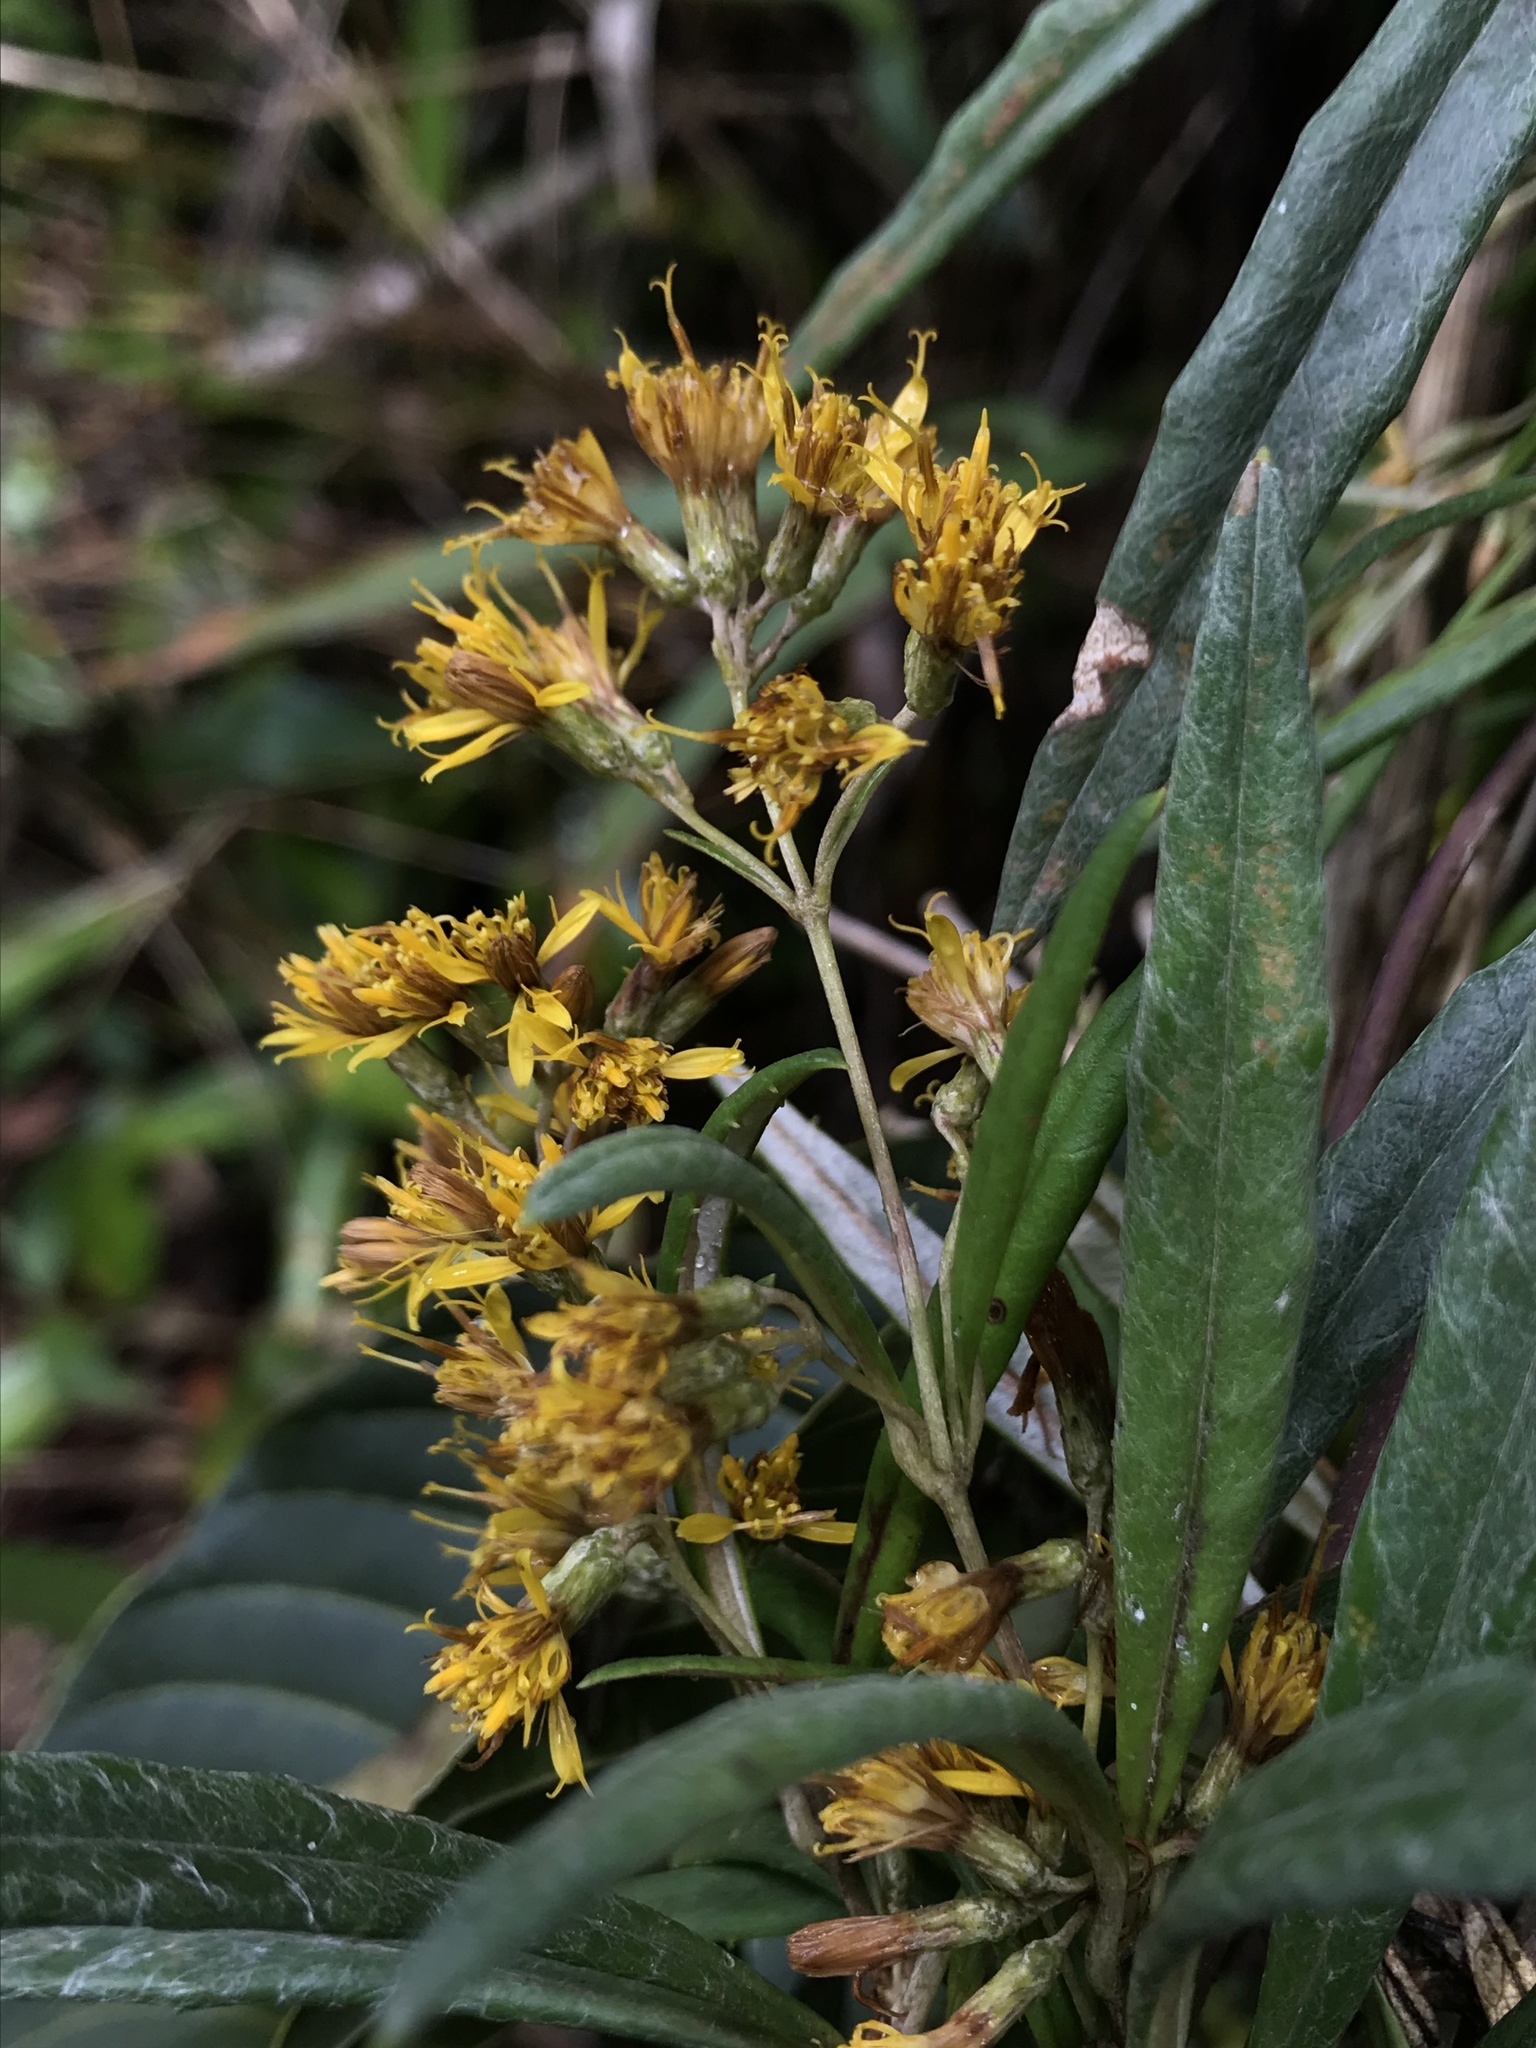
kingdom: Plantae
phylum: Tracheophyta
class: Magnoliopsida
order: Asterales
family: Asteraceae
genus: Oligactis
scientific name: Oligactis garcia-barrigae
